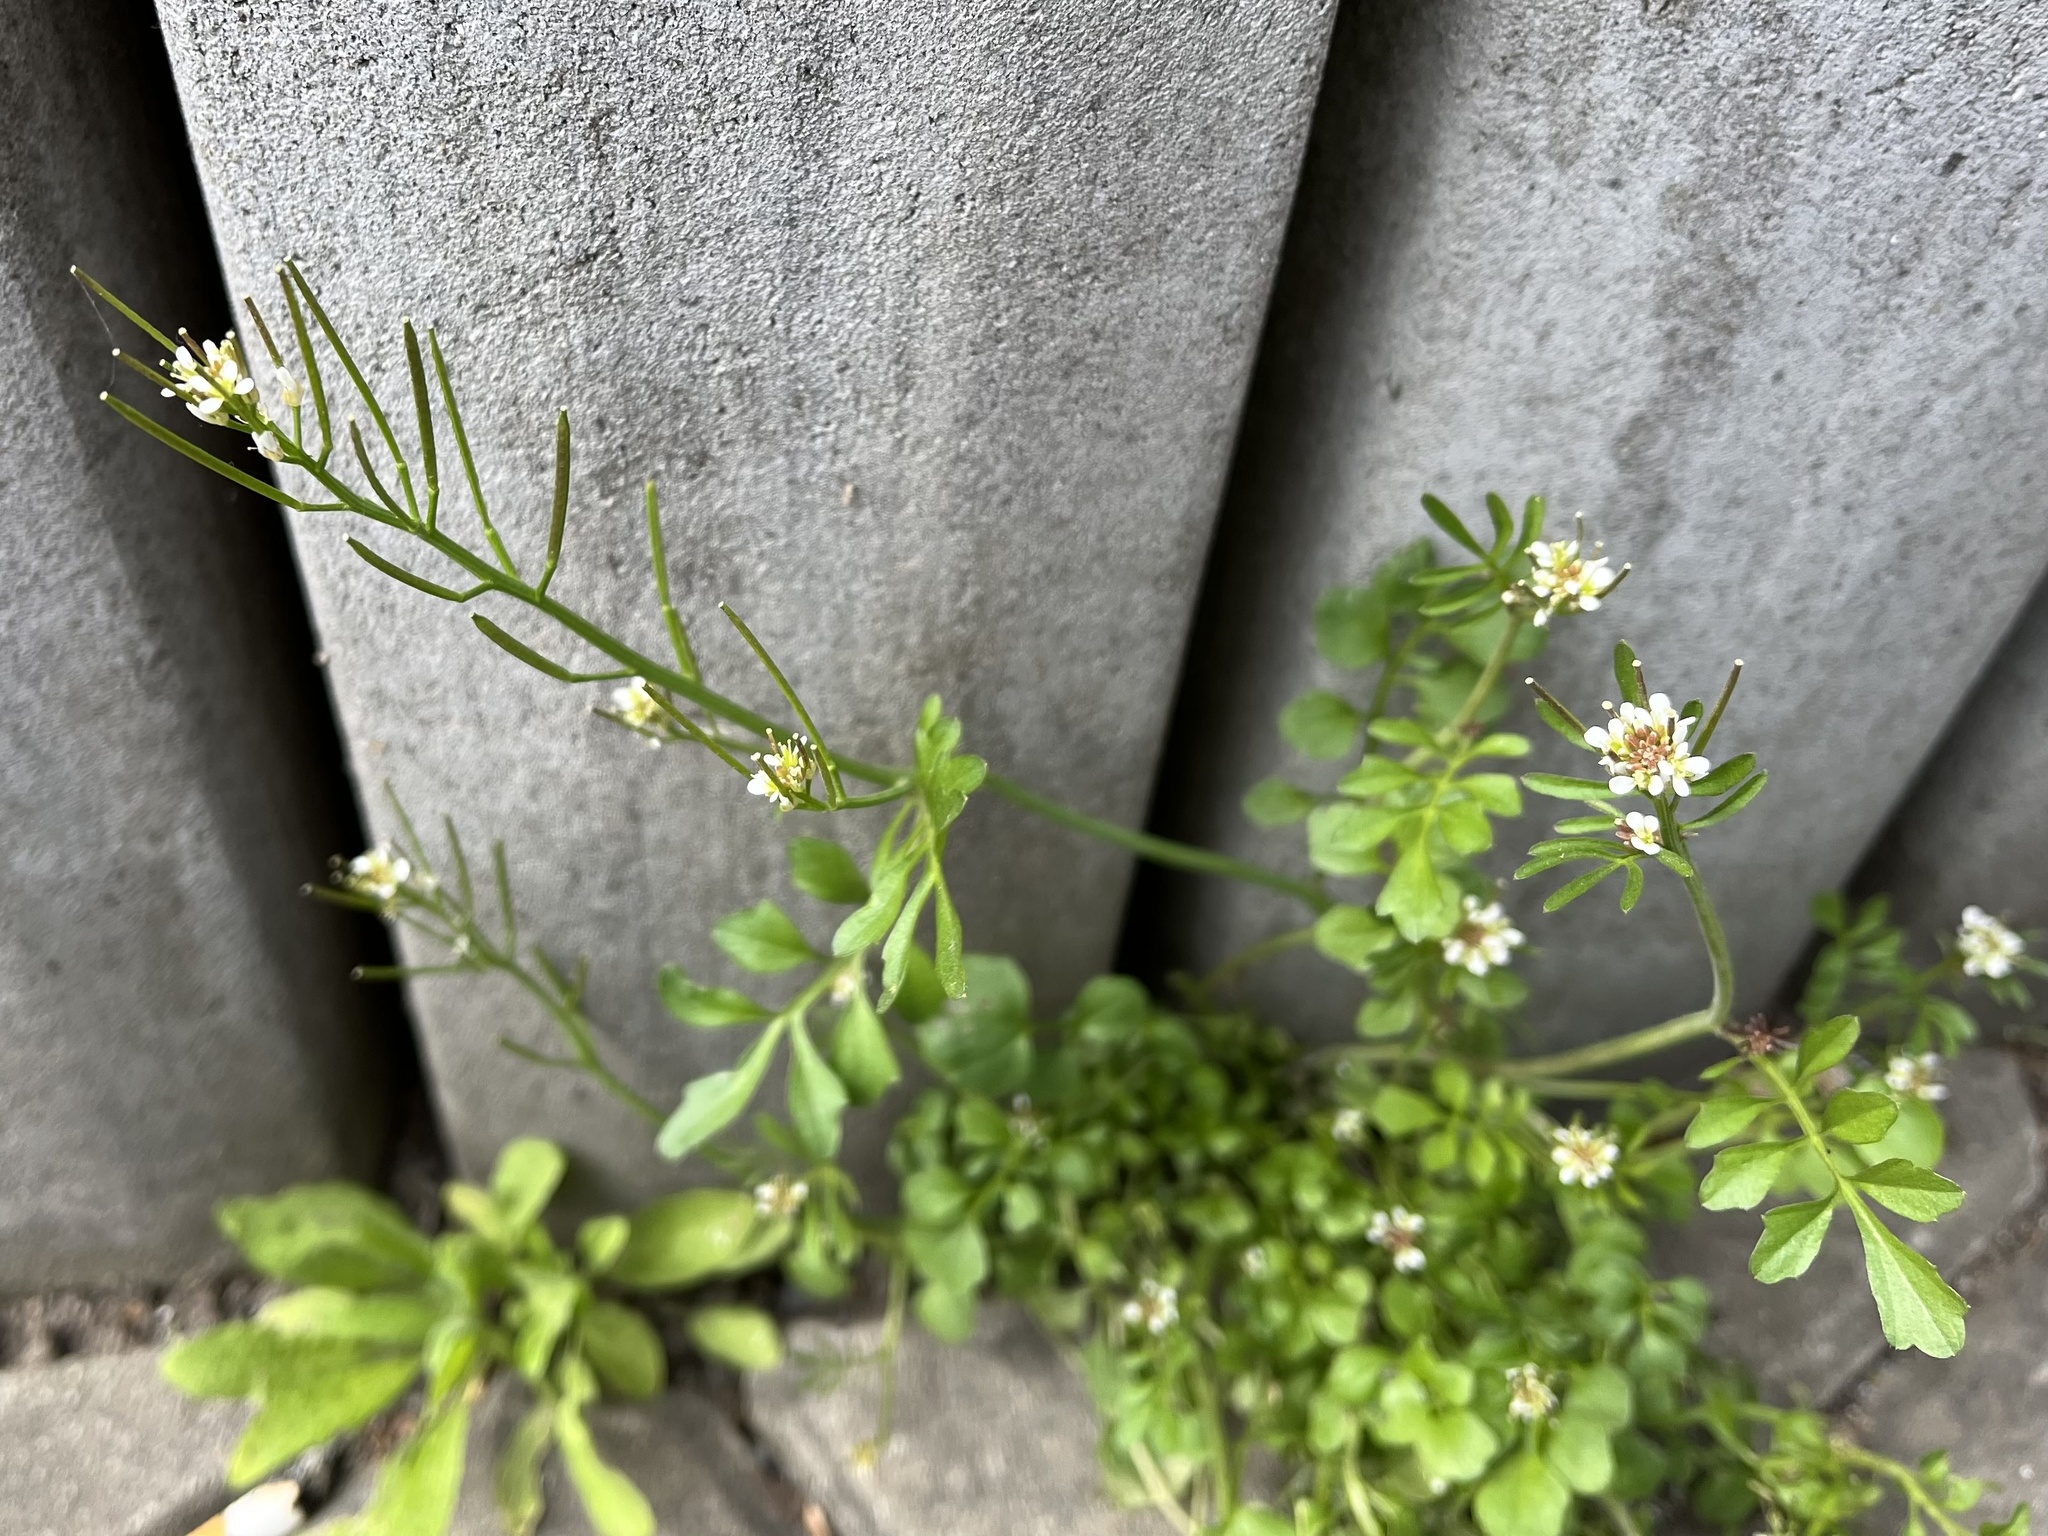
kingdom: Plantae
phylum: Tracheophyta
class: Magnoliopsida
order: Brassicales
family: Brassicaceae
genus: Cardamine
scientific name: Cardamine hirsuta
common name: Hairy bittercress
